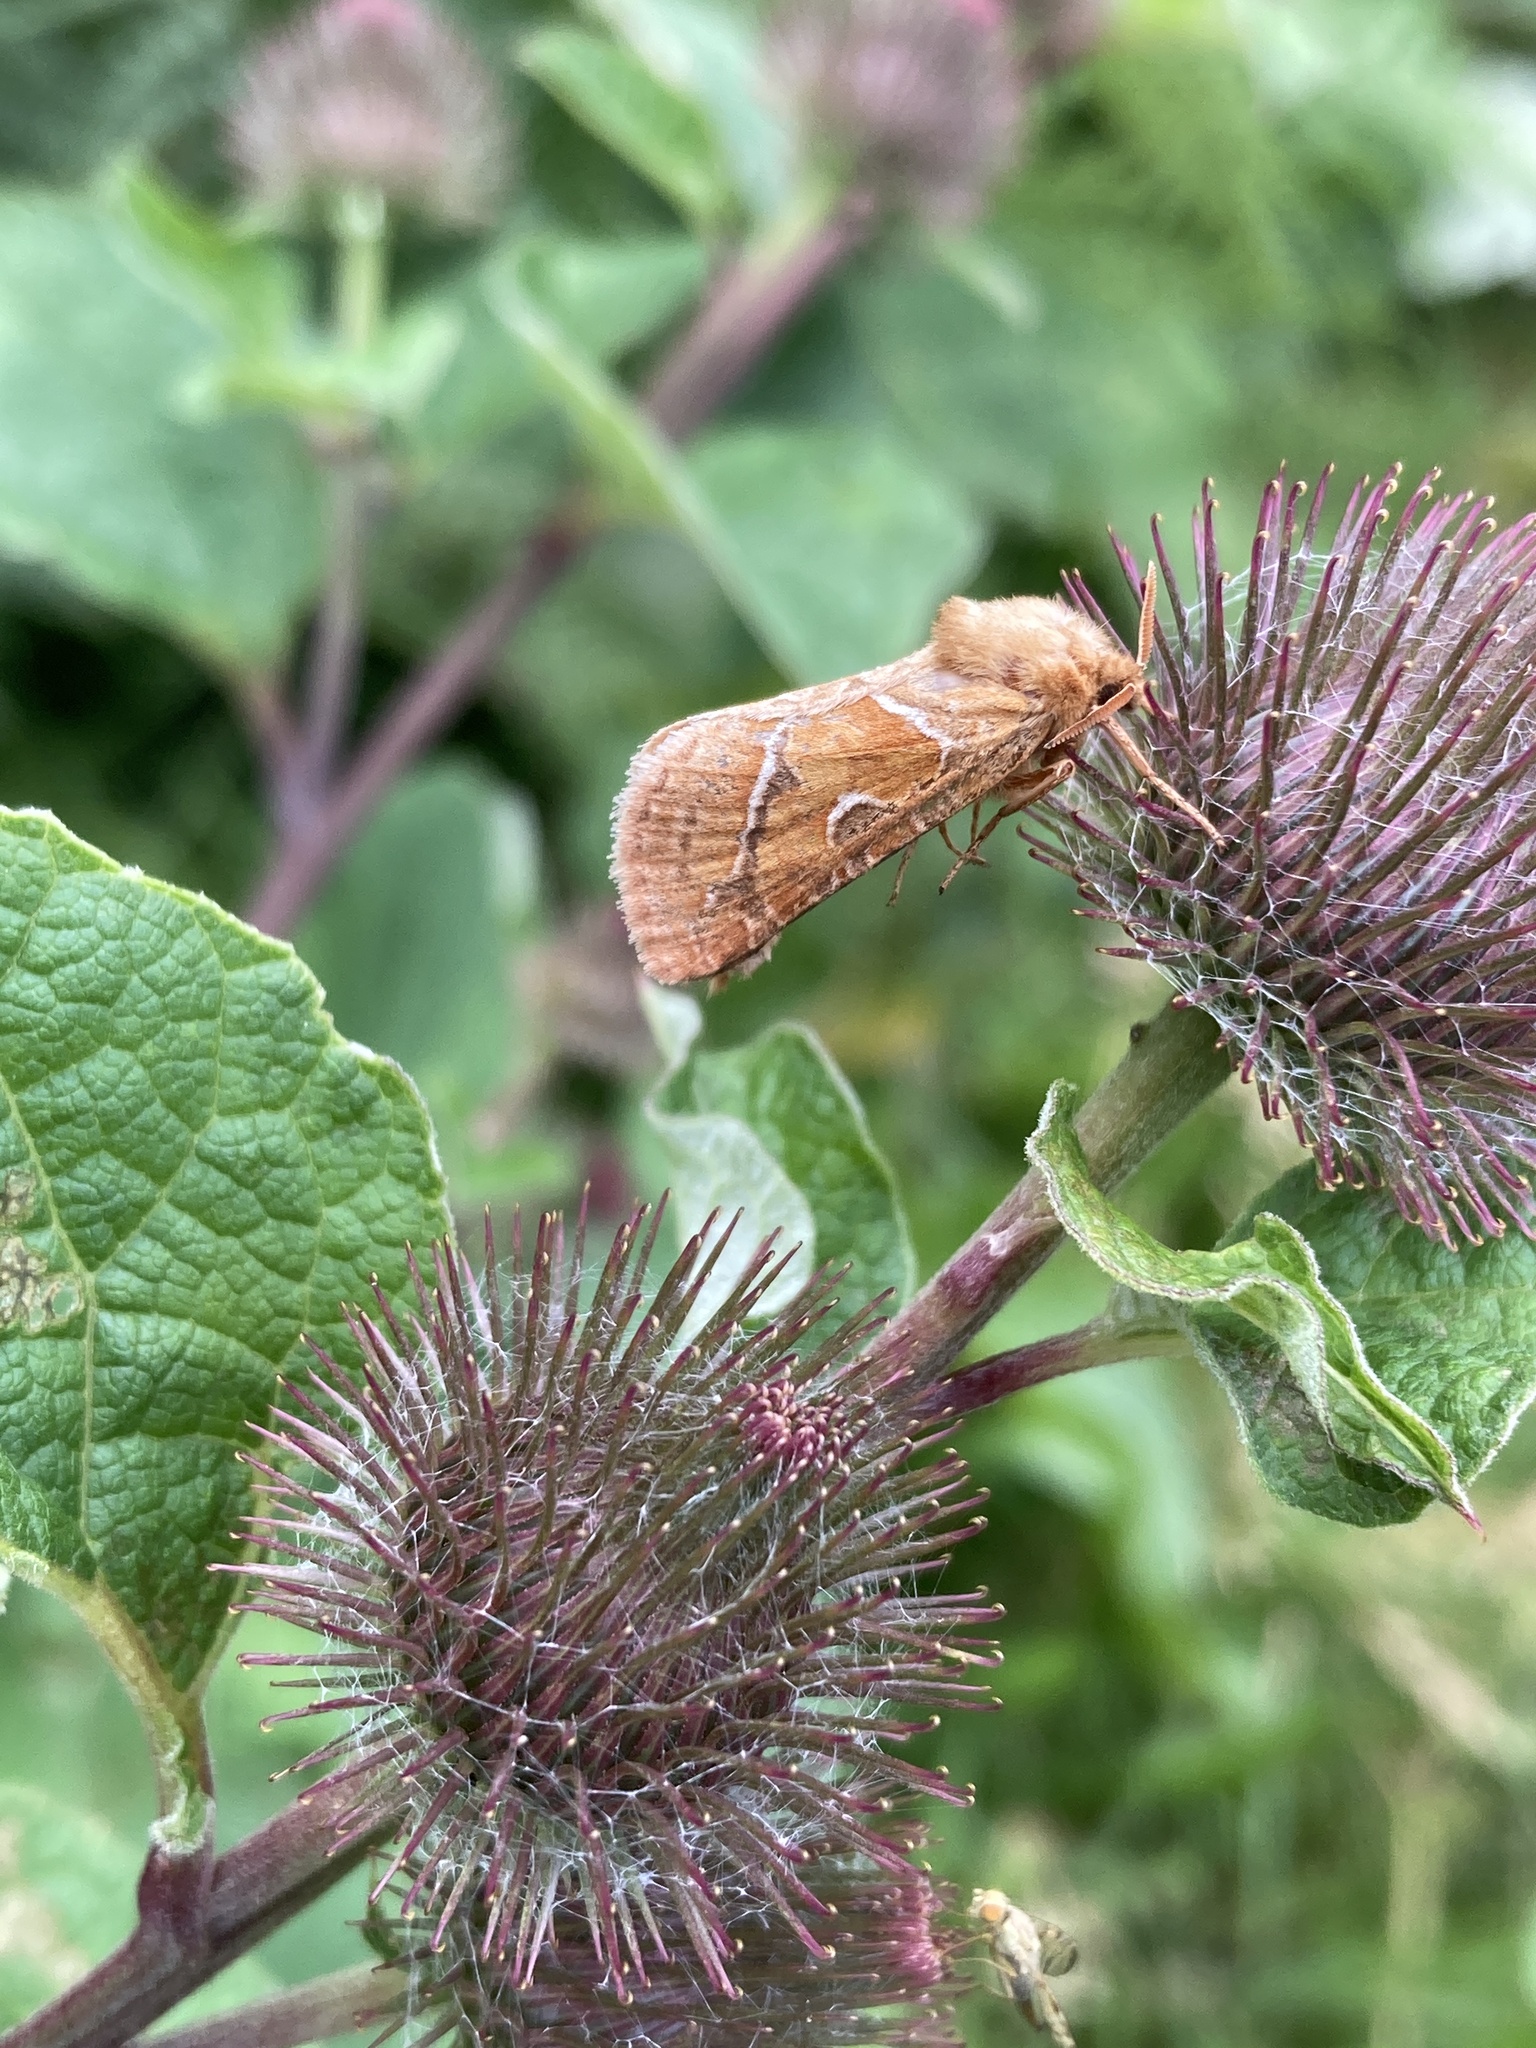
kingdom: Animalia
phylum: Arthropoda
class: Insecta
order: Lepidoptera
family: Hepialidae
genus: Triodia
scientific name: Triodia sylvina
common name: Orange swift
